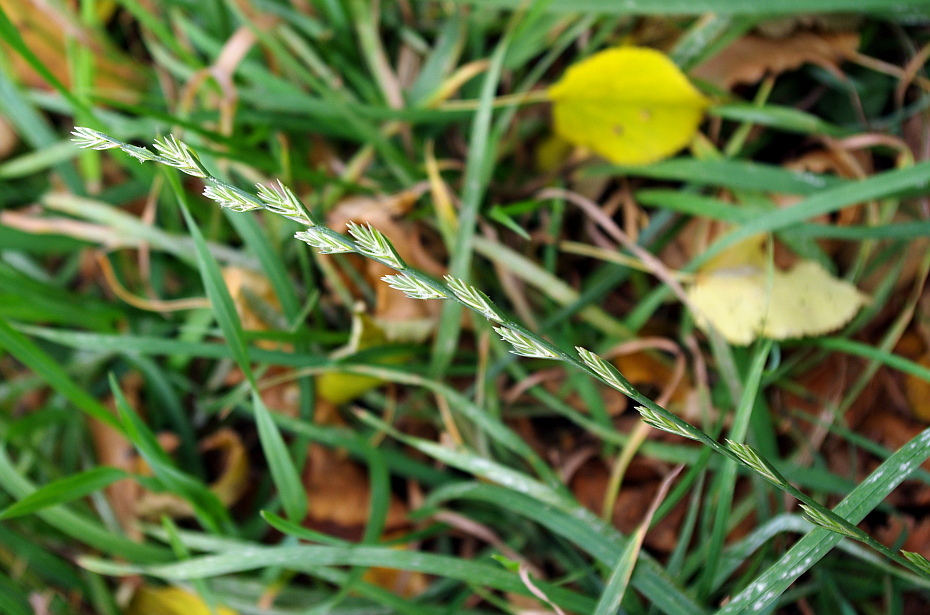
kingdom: Plantae
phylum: Tracheophyta
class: Liliopsida
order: Poales
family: Poaceae
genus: Lolium
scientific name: Lolium perenne
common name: Perennial ryegrass
